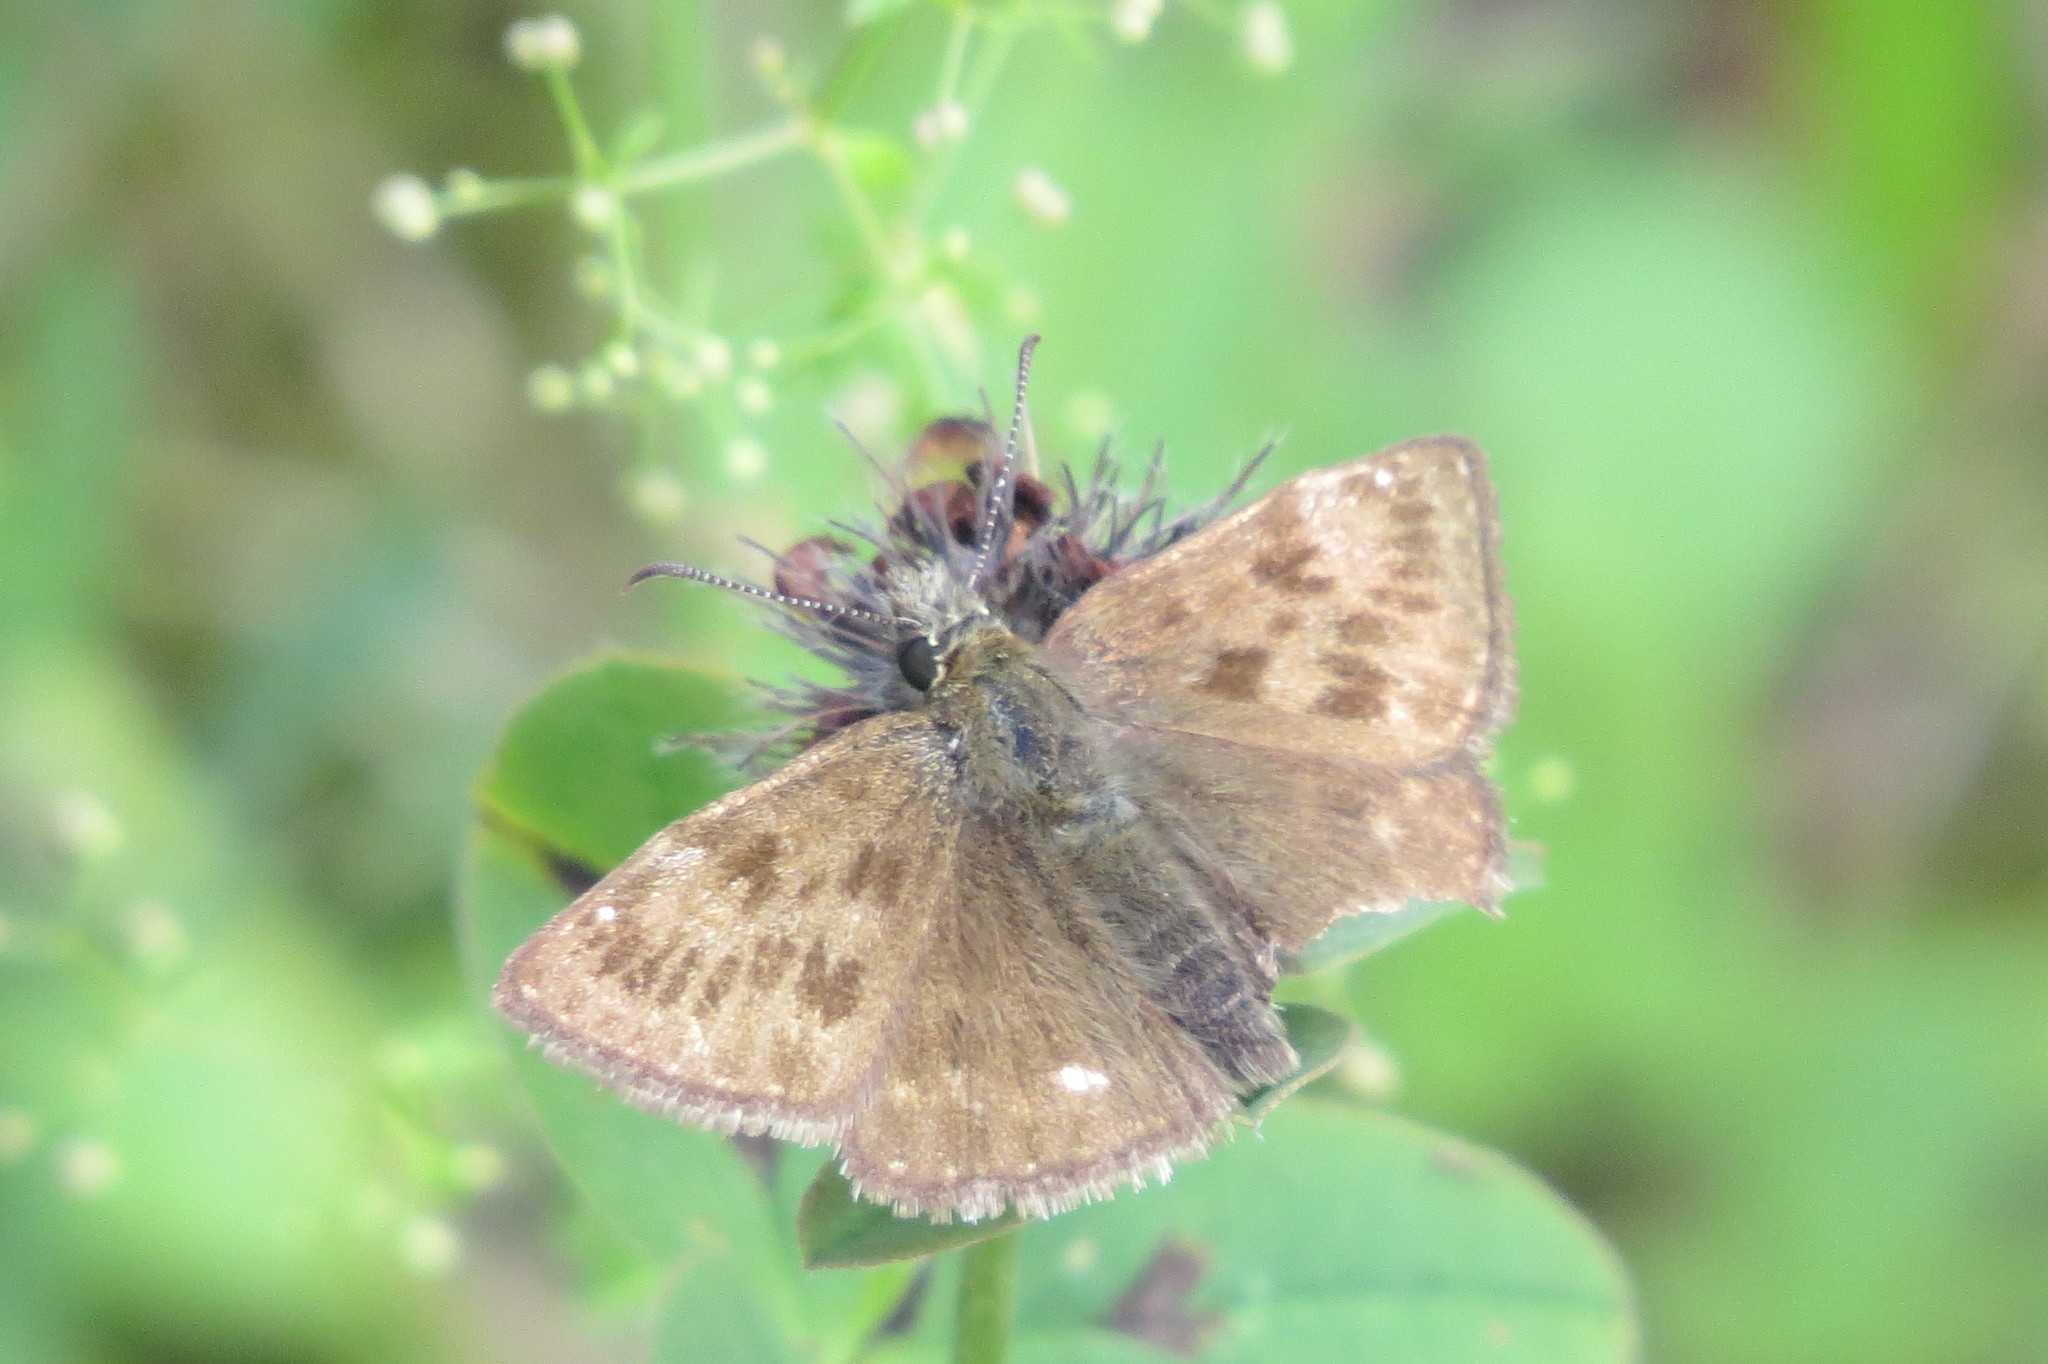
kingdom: Animalia
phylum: Arthropoda
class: Insecta
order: Lepidoptera
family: Hesperiidae
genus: Erynnis
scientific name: Erynnis tages
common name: Dingy skipper
